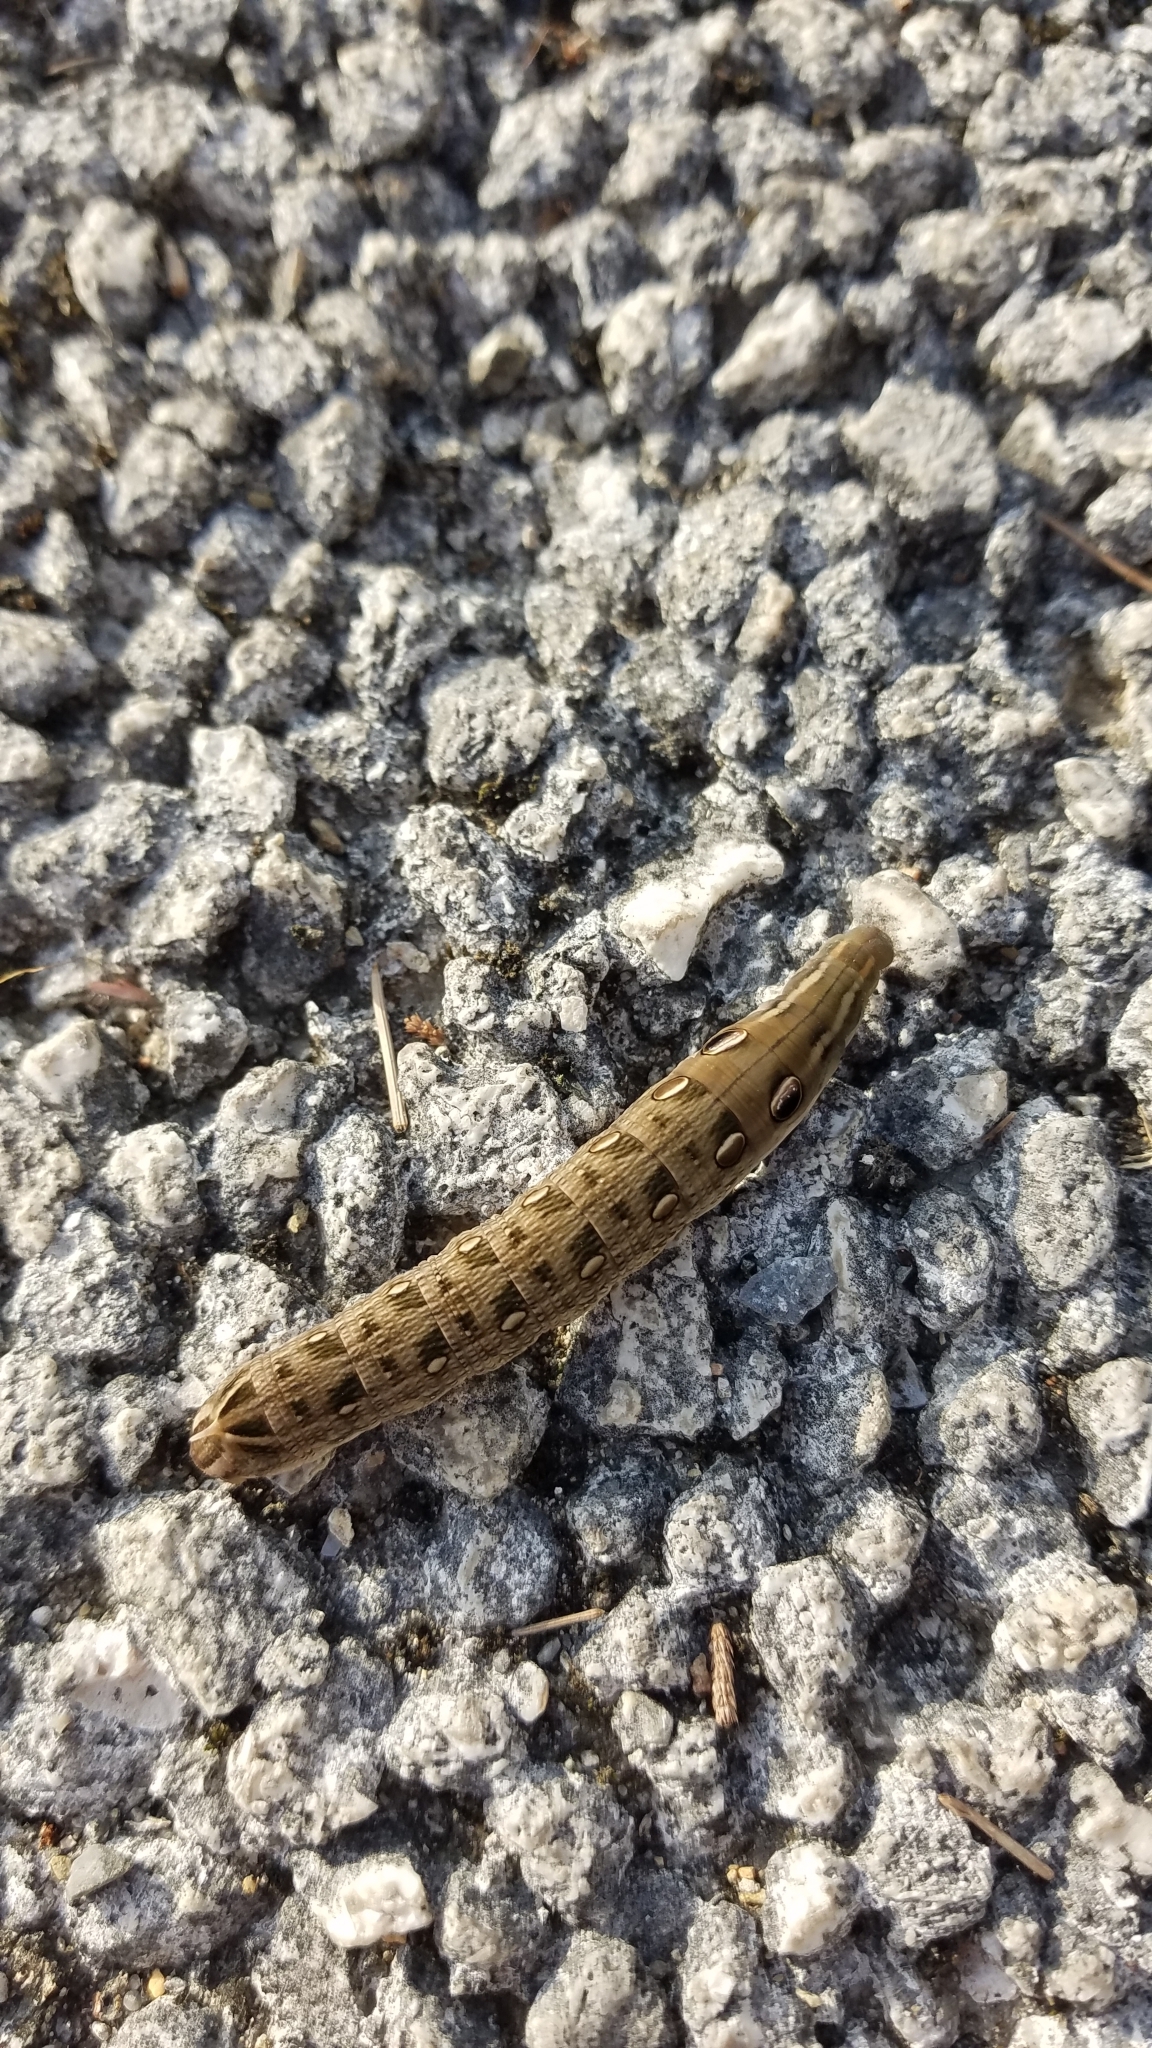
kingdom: Animalia
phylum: Arthropoda
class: Insecta
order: Lepidoptera
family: Sphingidae
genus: Hippotion
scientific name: Hippotion rosetta
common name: Vine hawk moth
